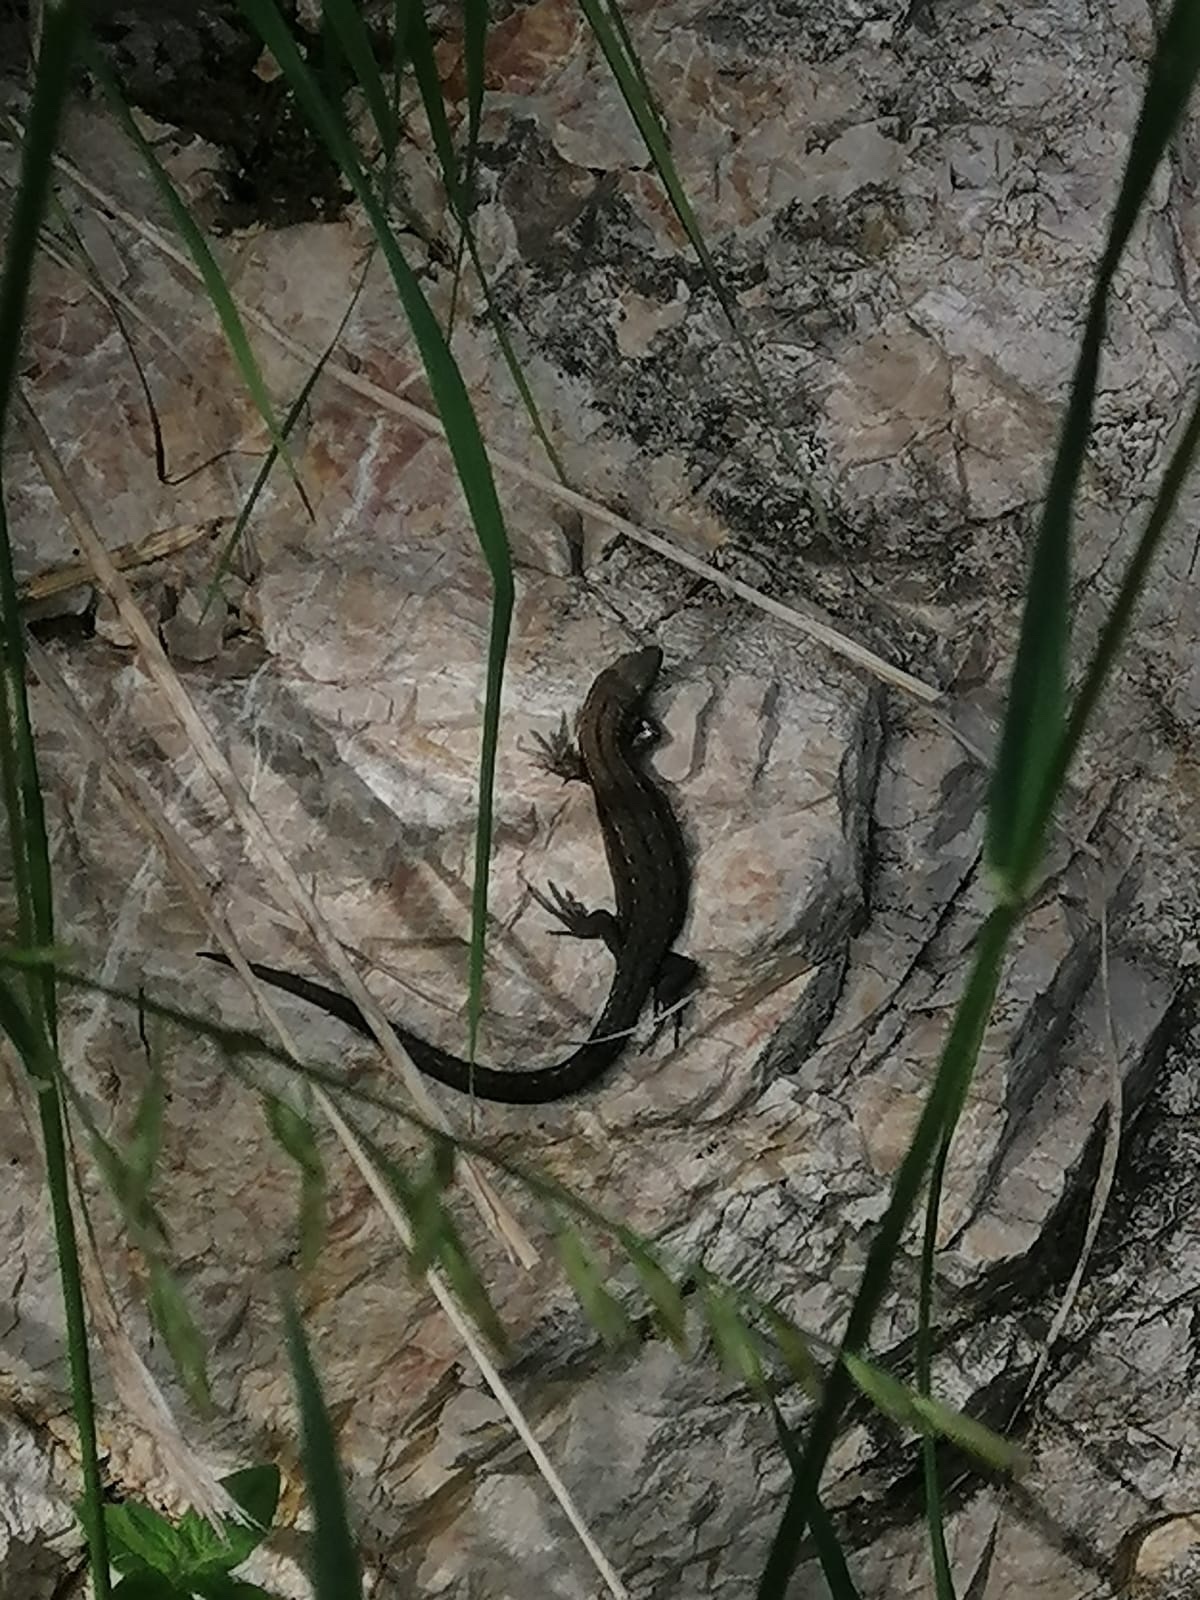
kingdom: Animalia
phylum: Chordata
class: Squamata
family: Lacertidae
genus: Zootoca
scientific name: Zootoca vivipara
